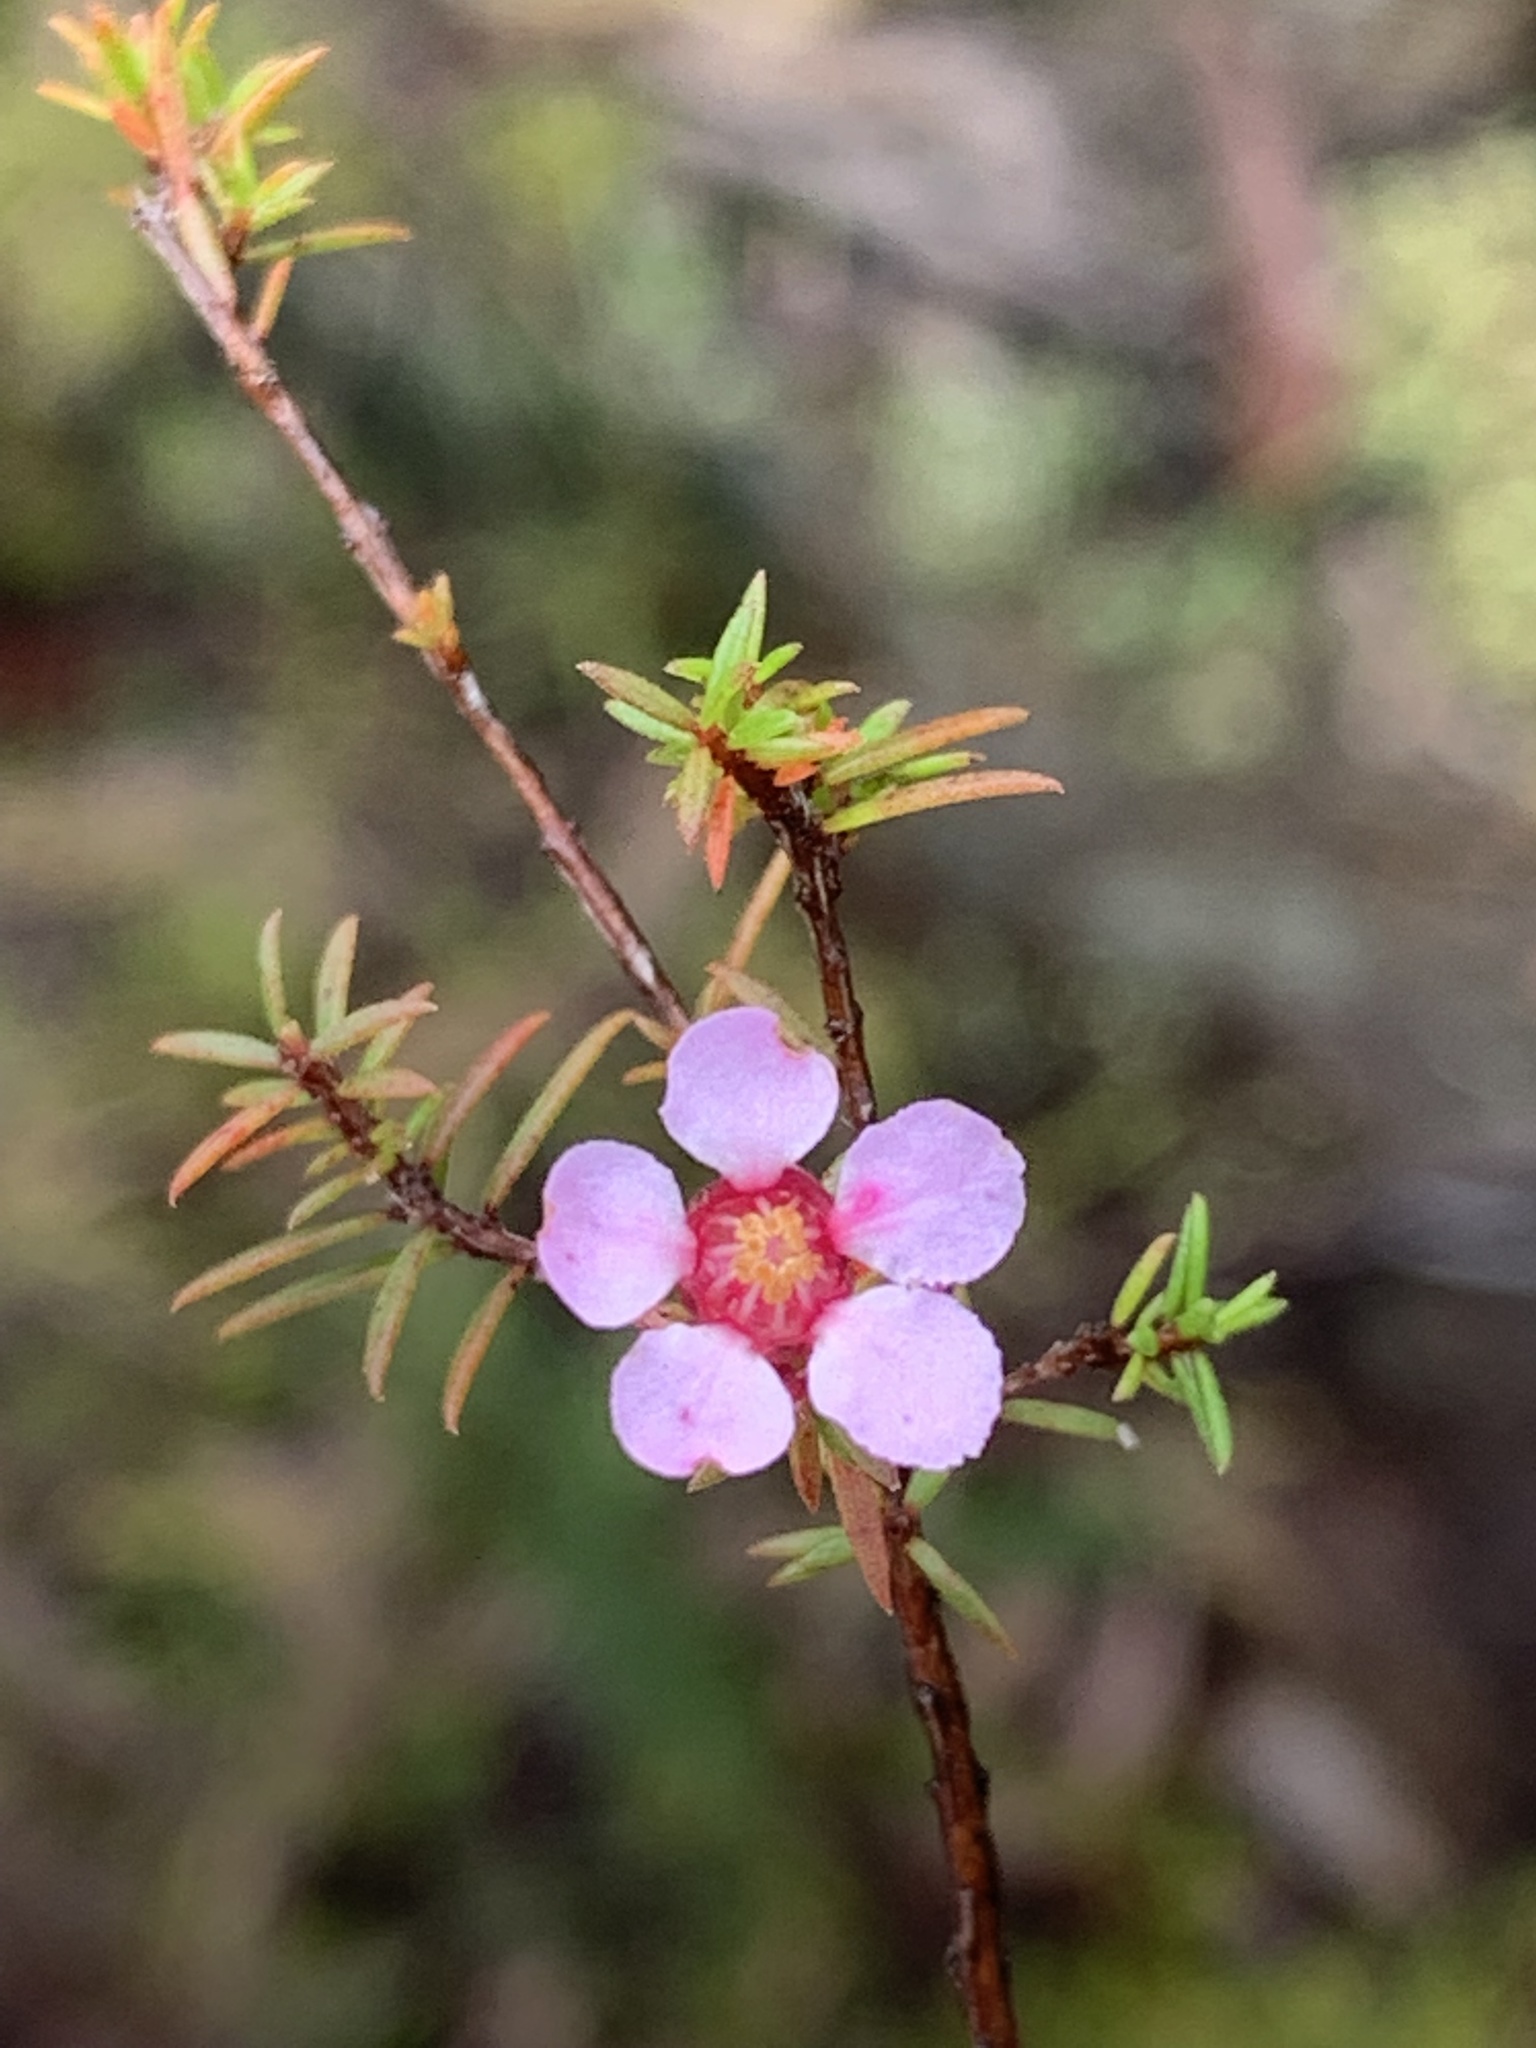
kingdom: Plantae
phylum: Tracheophyta
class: Magnoliopsida
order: Myrtales
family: Myrtaceae
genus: Euryomyrtus
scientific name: Euryomyrtus ramosissima
